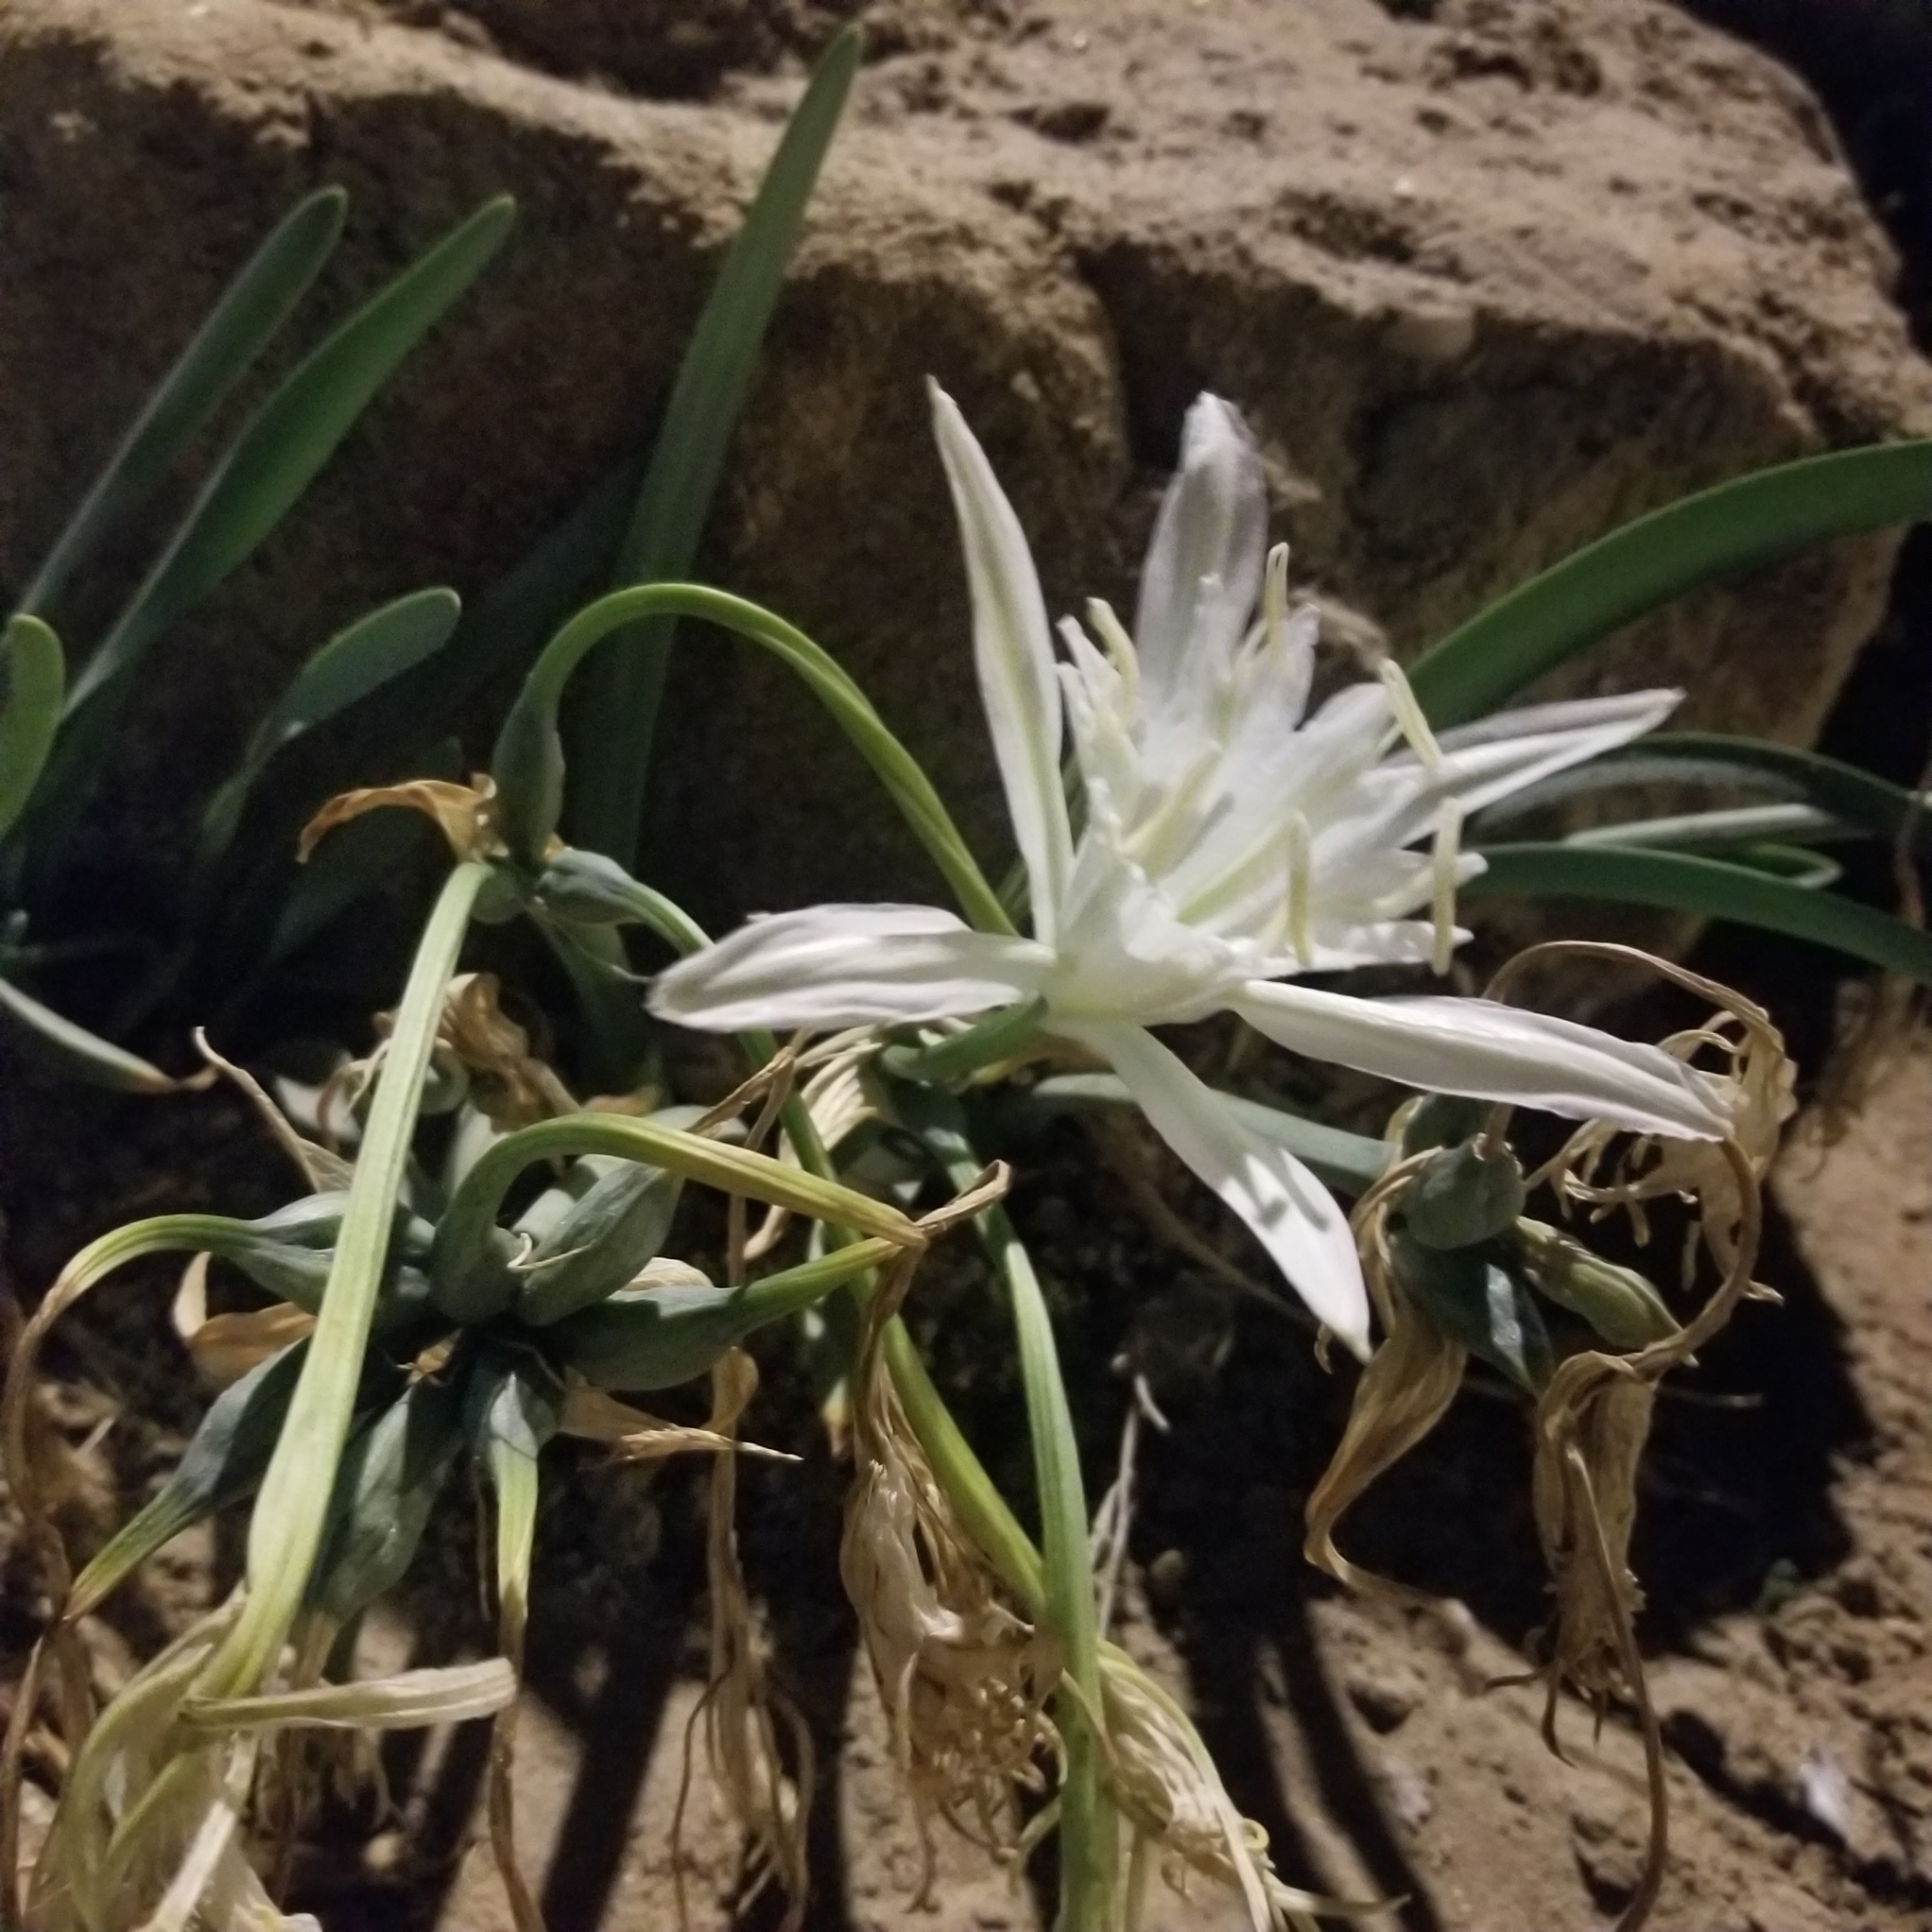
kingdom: Plantae
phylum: Tracheophyta
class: Liliopsida
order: Asparagales
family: Amaryllidaceae
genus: Pancratium
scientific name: Pancratium maritimum
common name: Sea-daffodil
